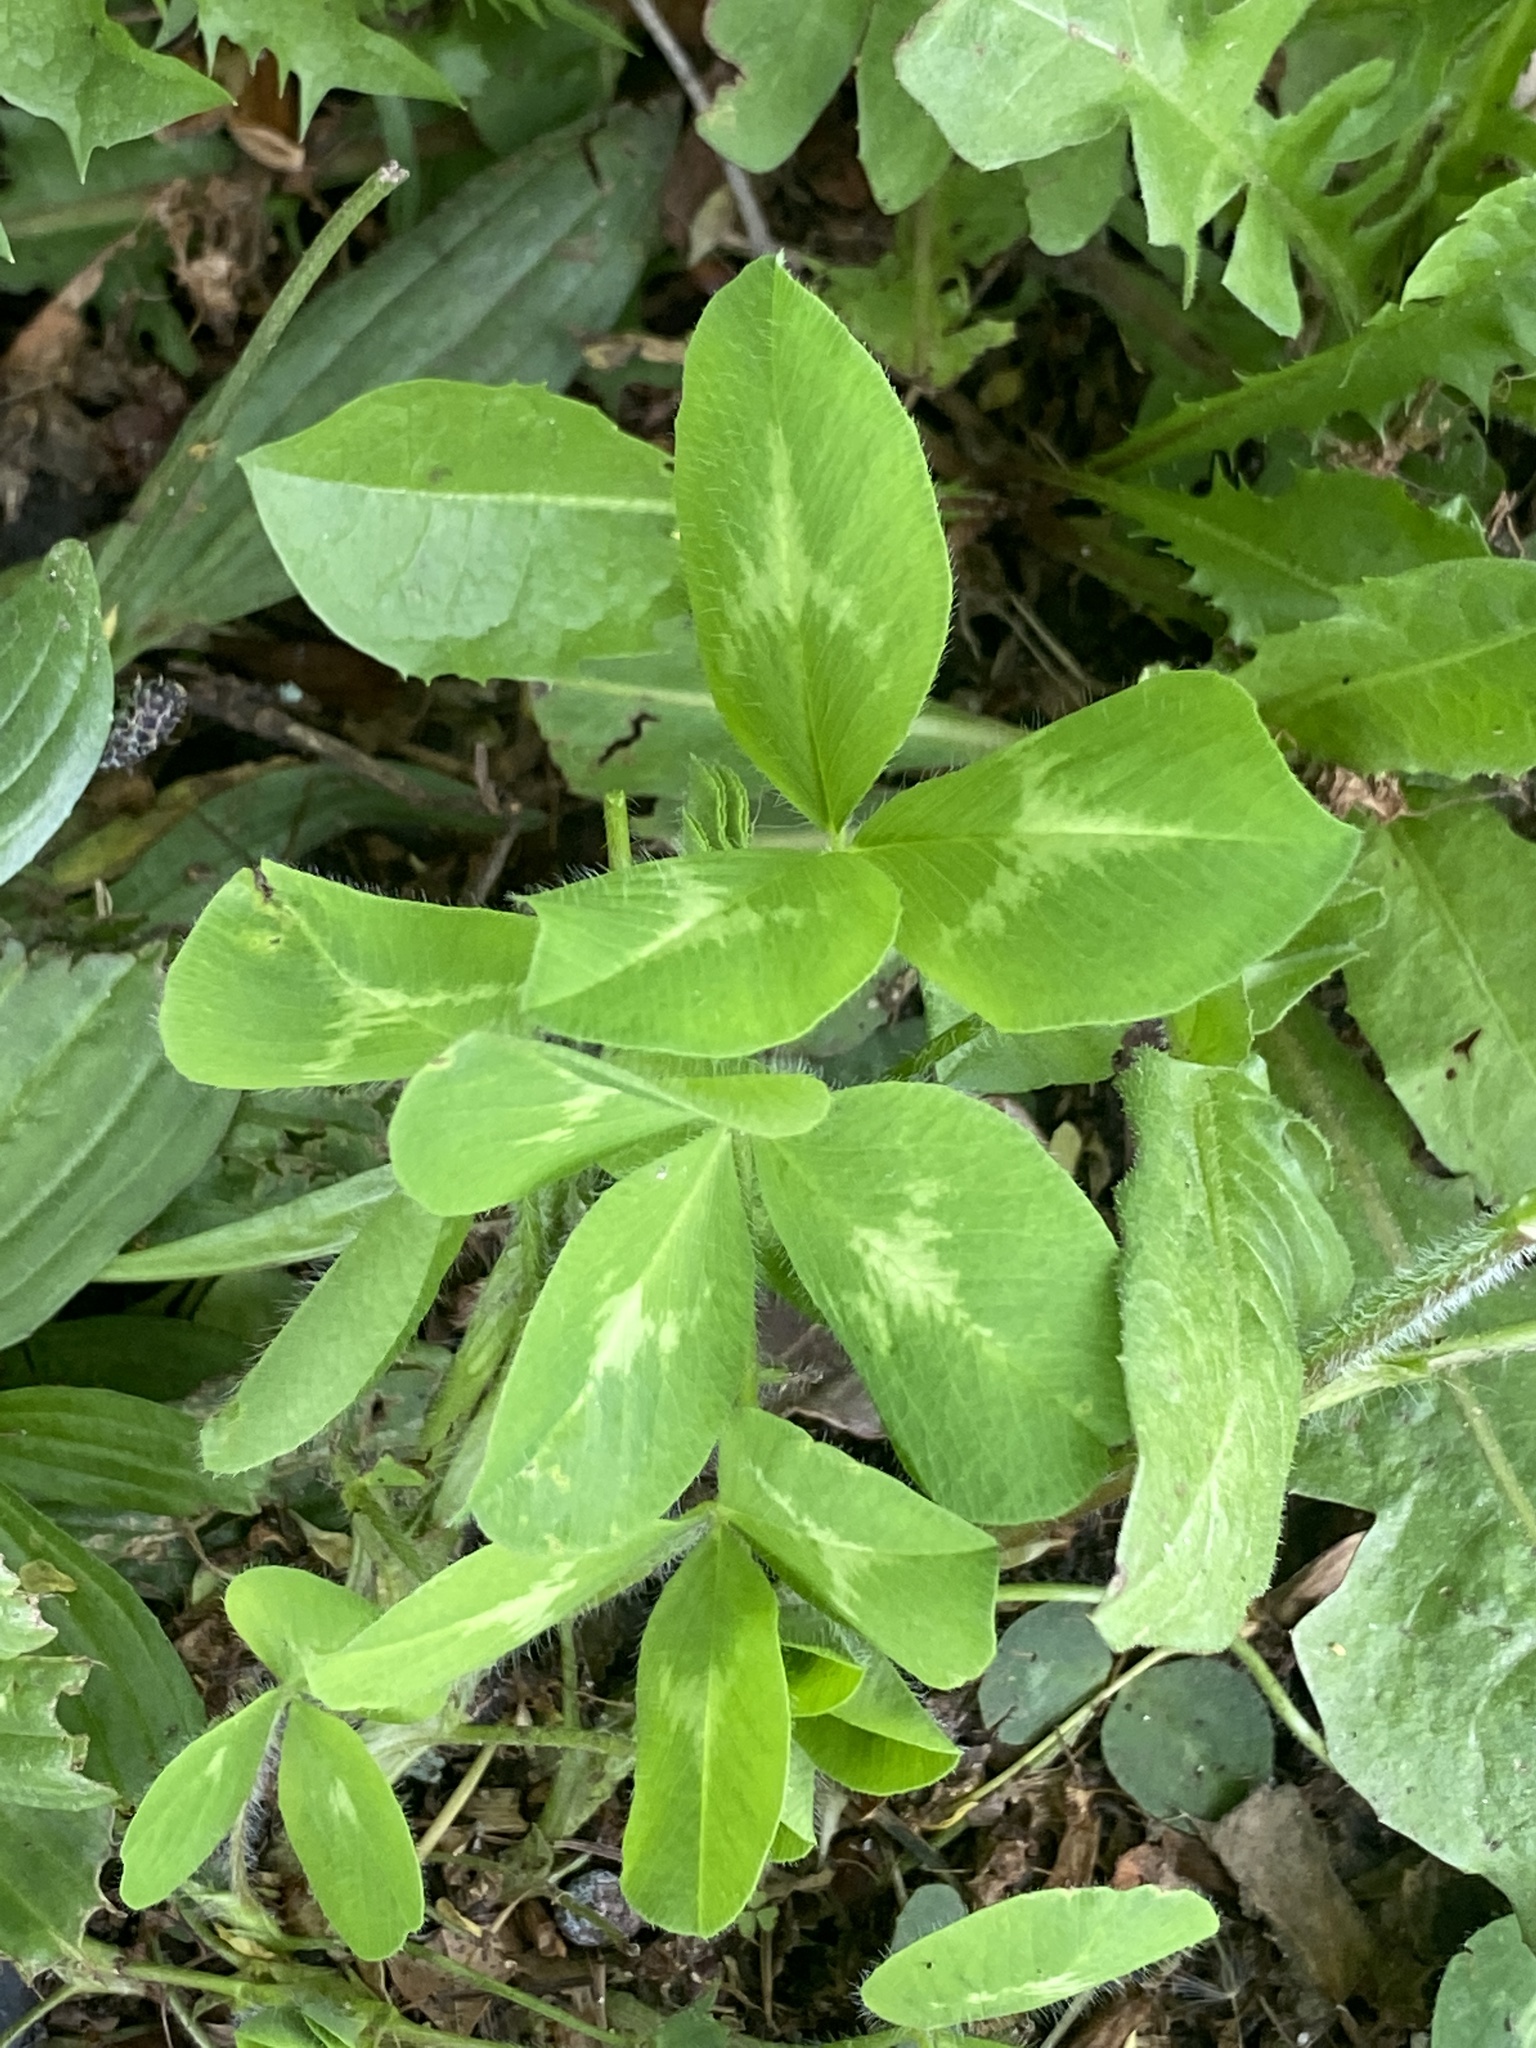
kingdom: Plantae
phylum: Tracheophyta
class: Magnoliopsida
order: Fabales
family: Fabaceae
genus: Trifolium
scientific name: Trifolium pratense
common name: Red clover
